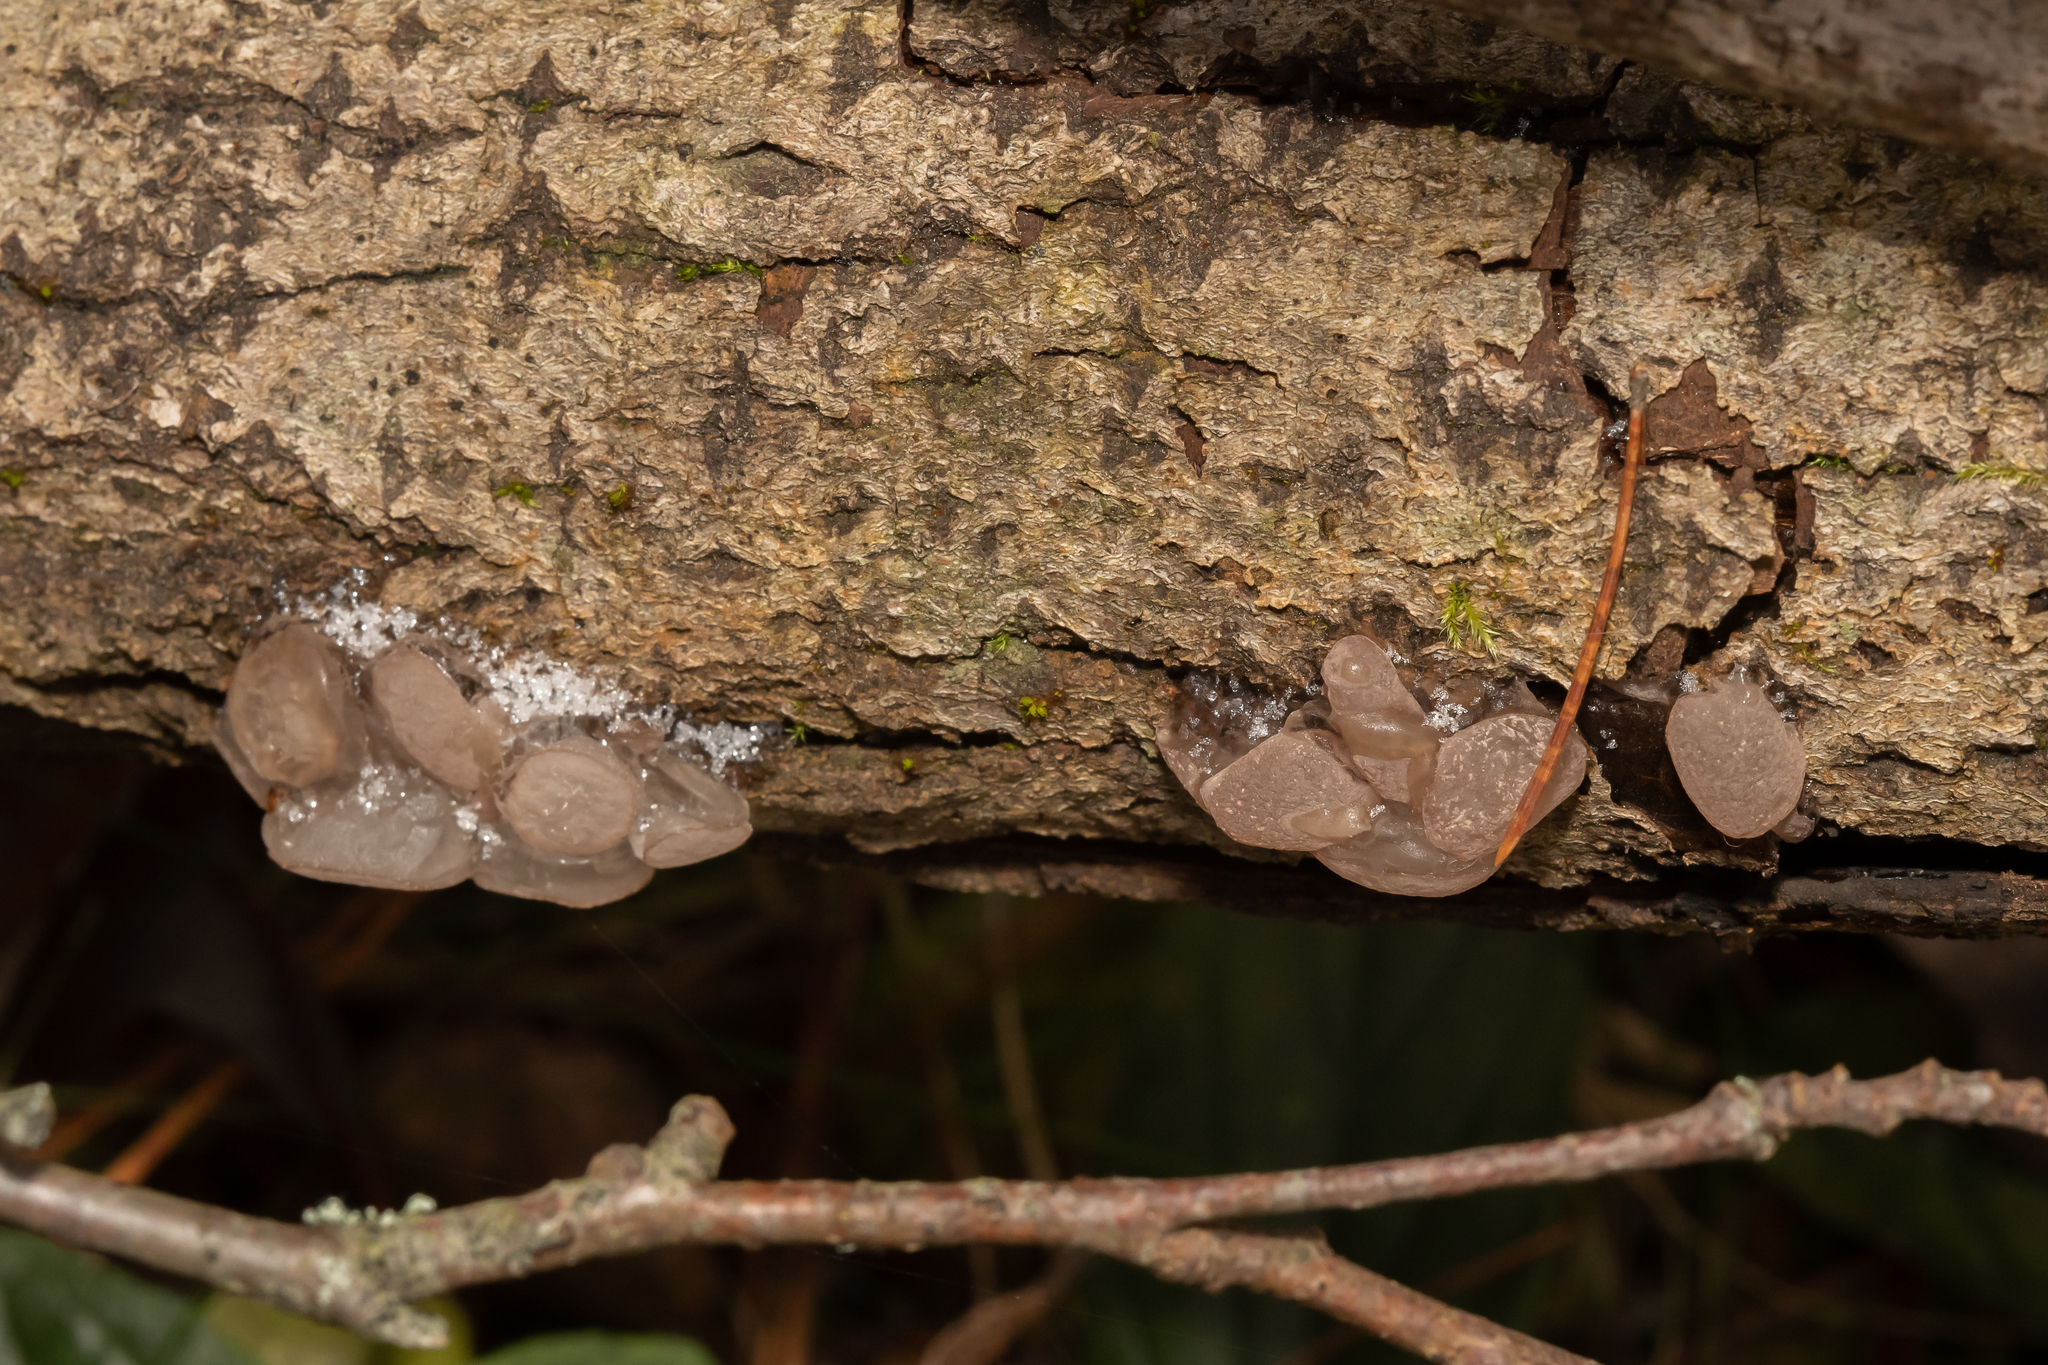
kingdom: Fungi
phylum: Ascomycota
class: Leotiomycetes
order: Helotiales
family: Gelatinodiscaceae
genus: Neobulgaria
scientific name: Neobulgaria pura
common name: Beech jelly-disc
